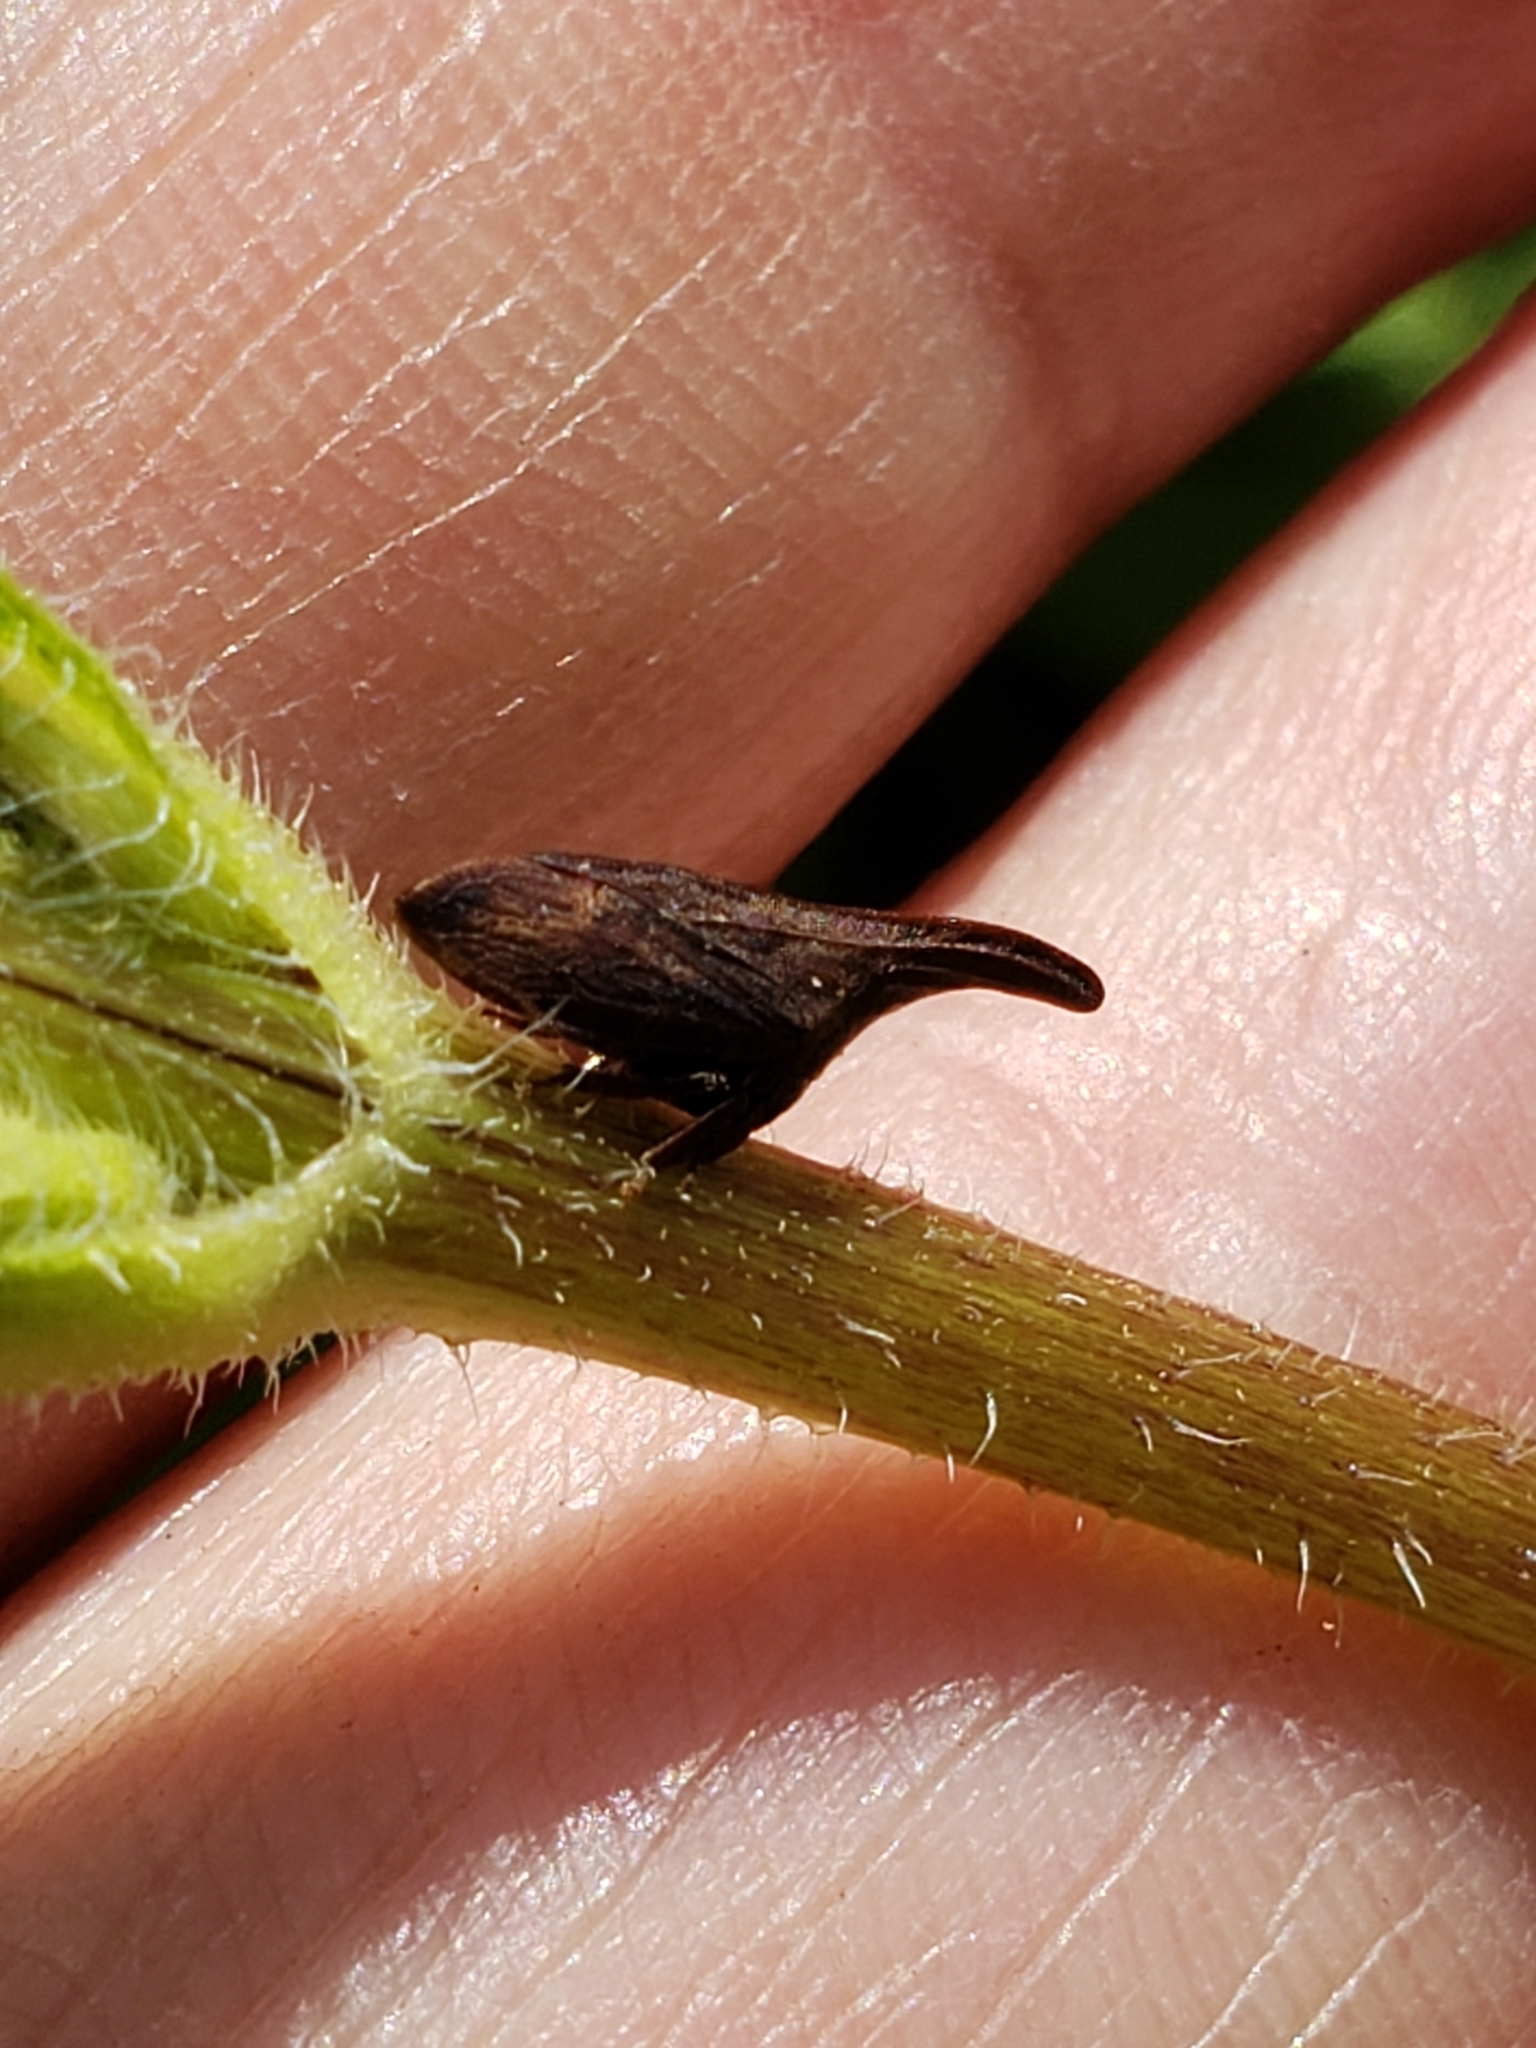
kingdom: Animalia
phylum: Arthropoda
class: Insecta
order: Hemiptera
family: Membracidae
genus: Enchenopa
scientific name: Enchenopa latipes
